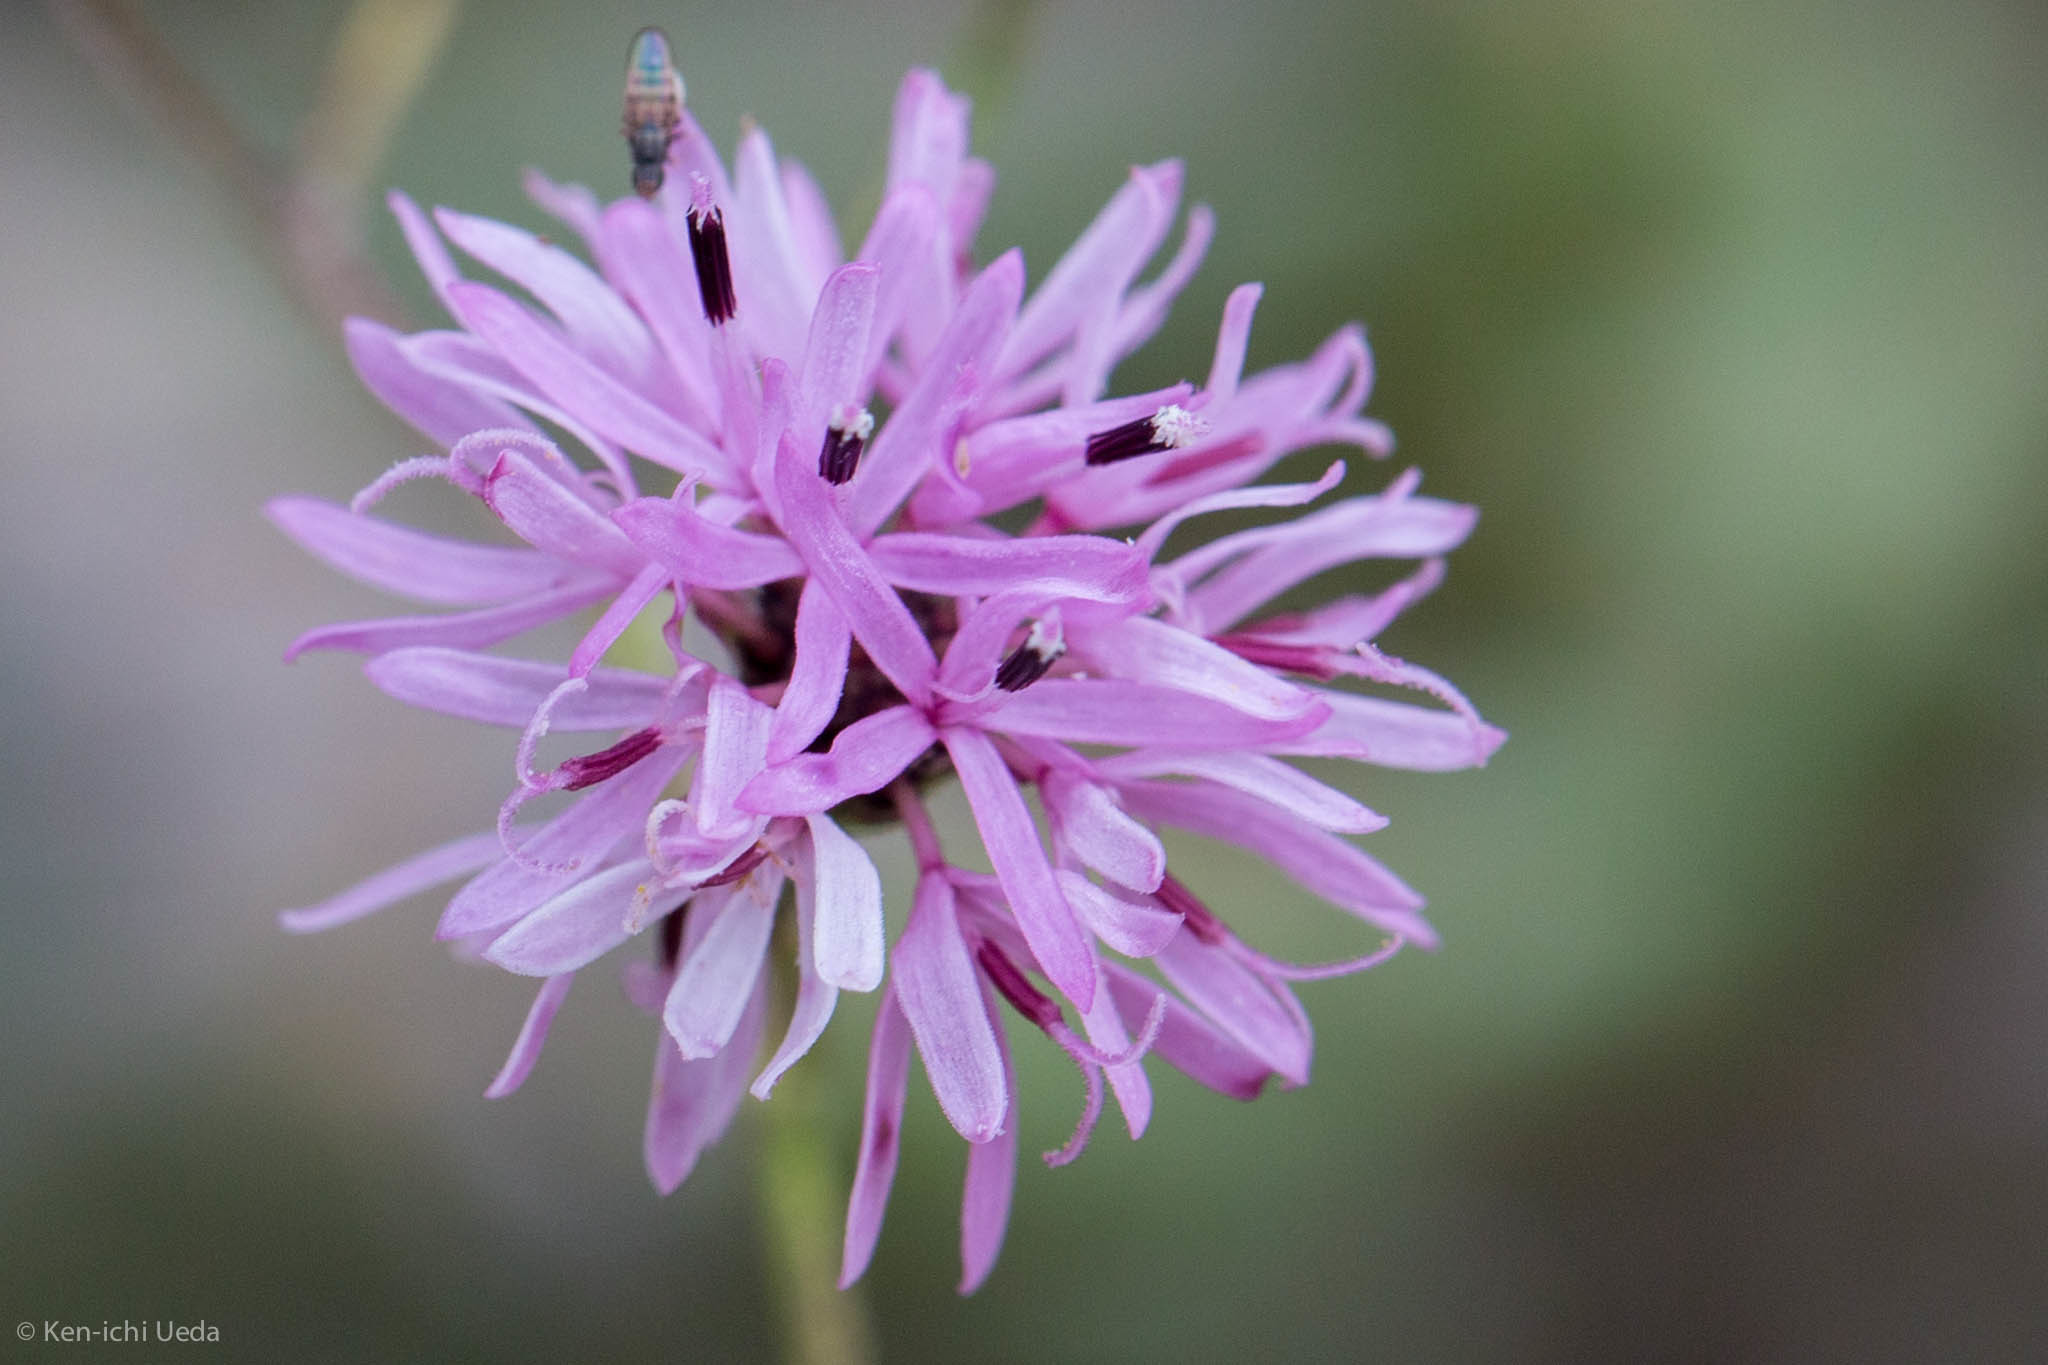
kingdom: Plantae
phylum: Tracheophyta
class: Magnoliopsida
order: Asterales
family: Asteraceae
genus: Palafoxia
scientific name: Palafoxia callosa
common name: Small palafox
